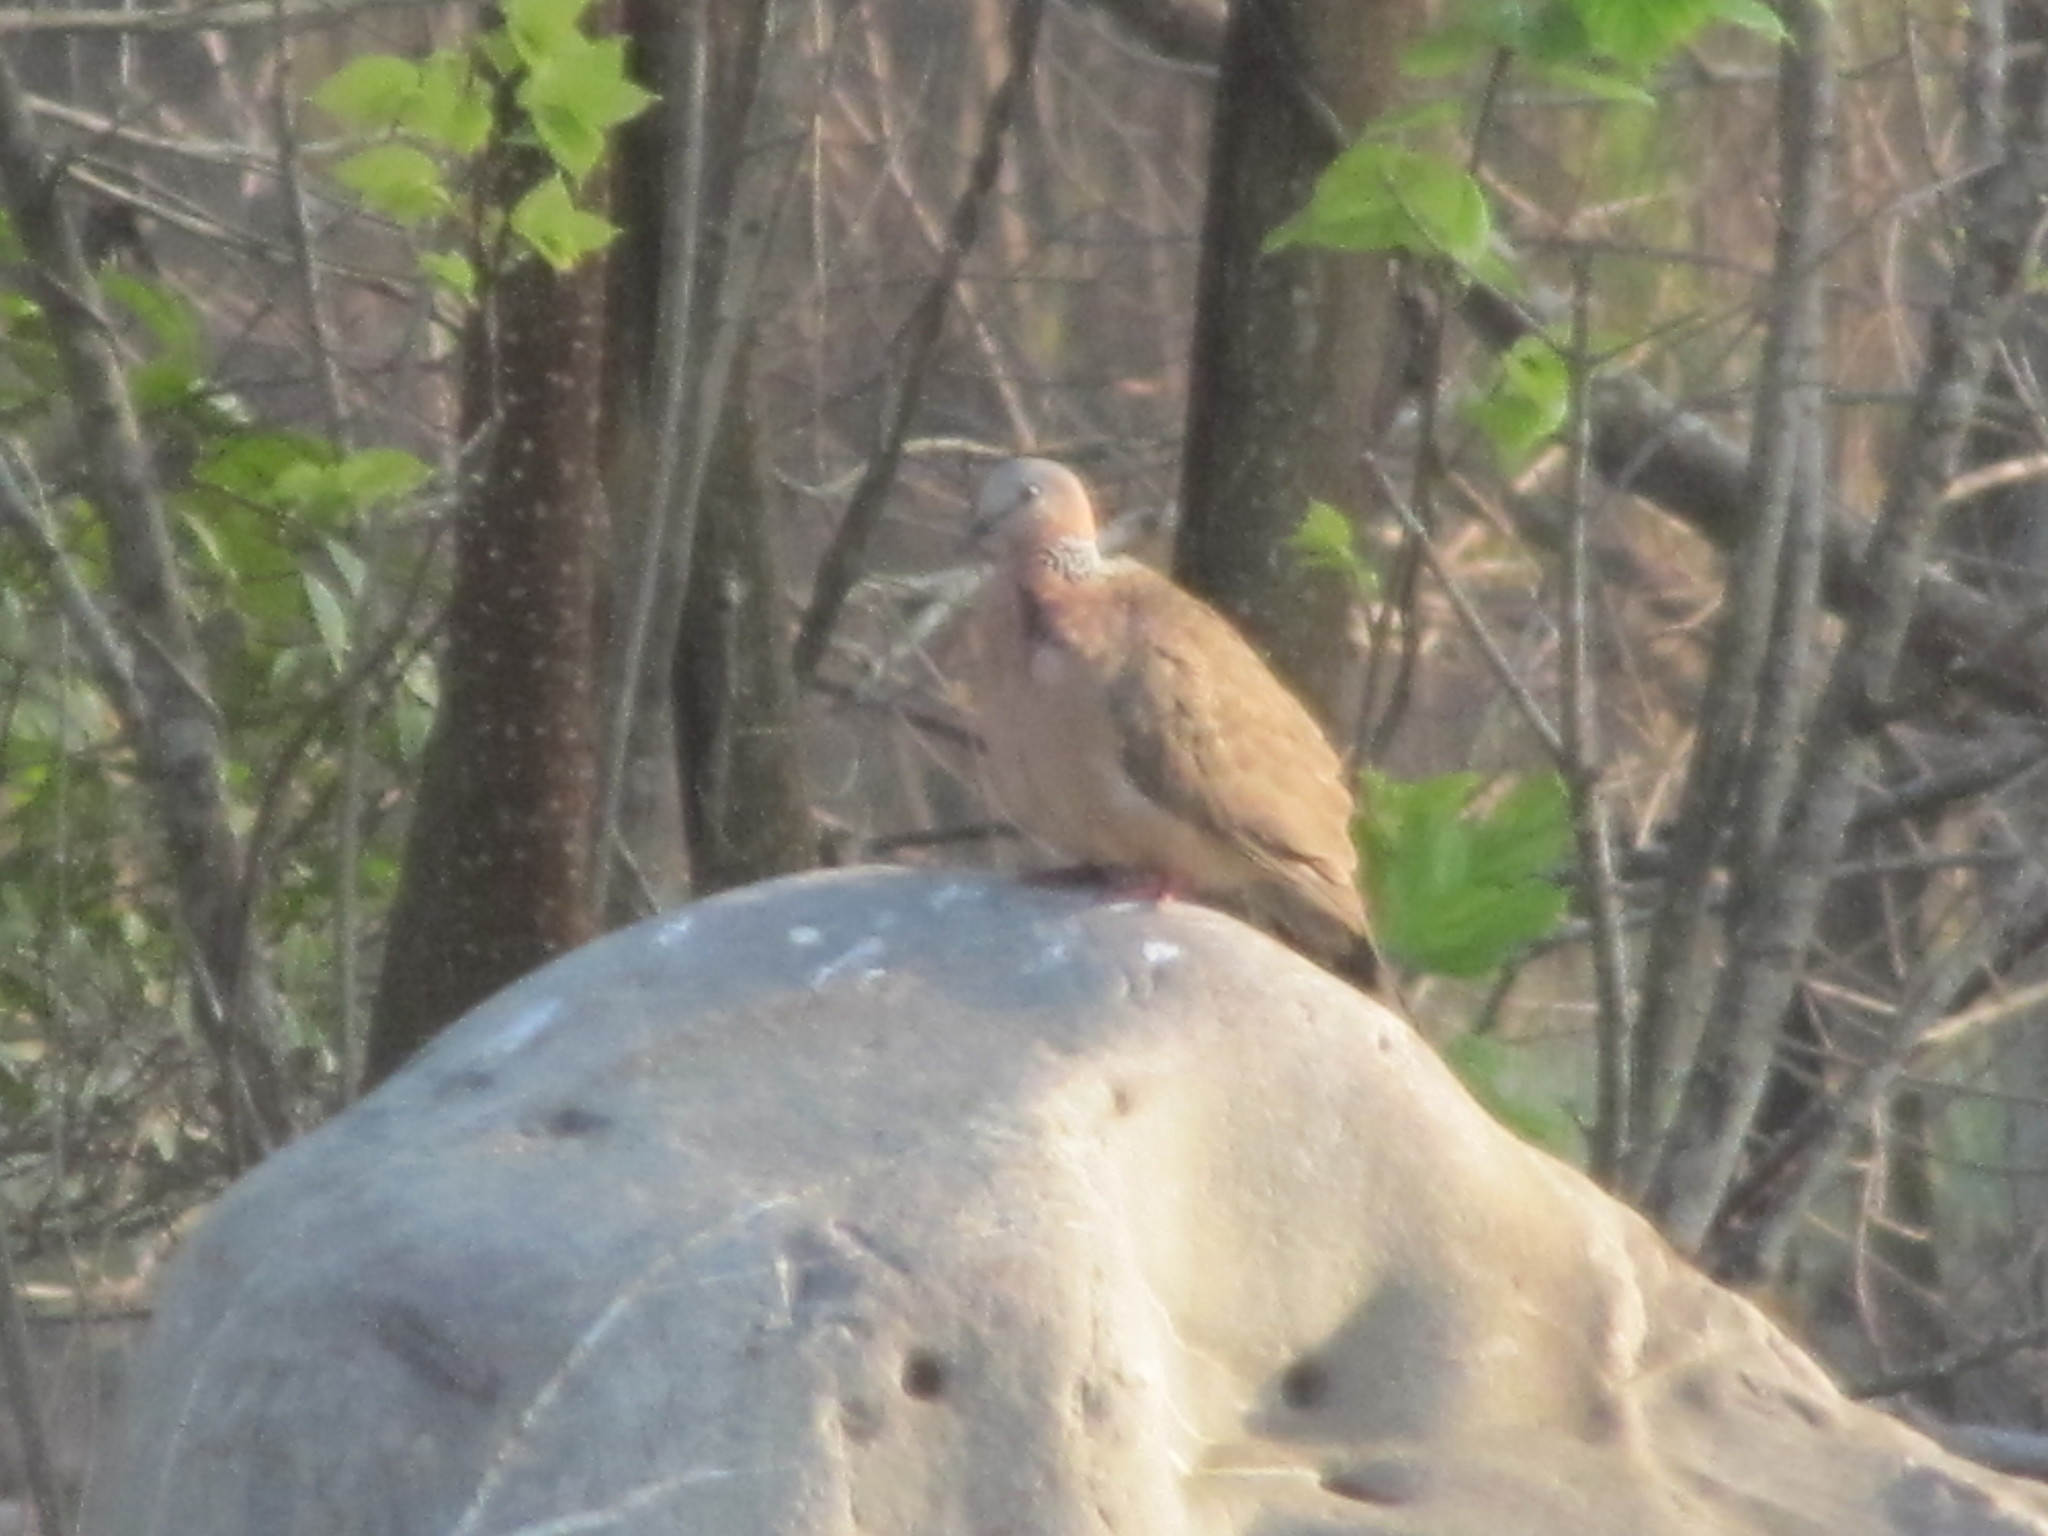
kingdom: Animalia
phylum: Chordata
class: Aves
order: Columbiformes
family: Columbidae
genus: Spilopelia
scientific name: Spilopelia chinensis
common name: Spotted dove
